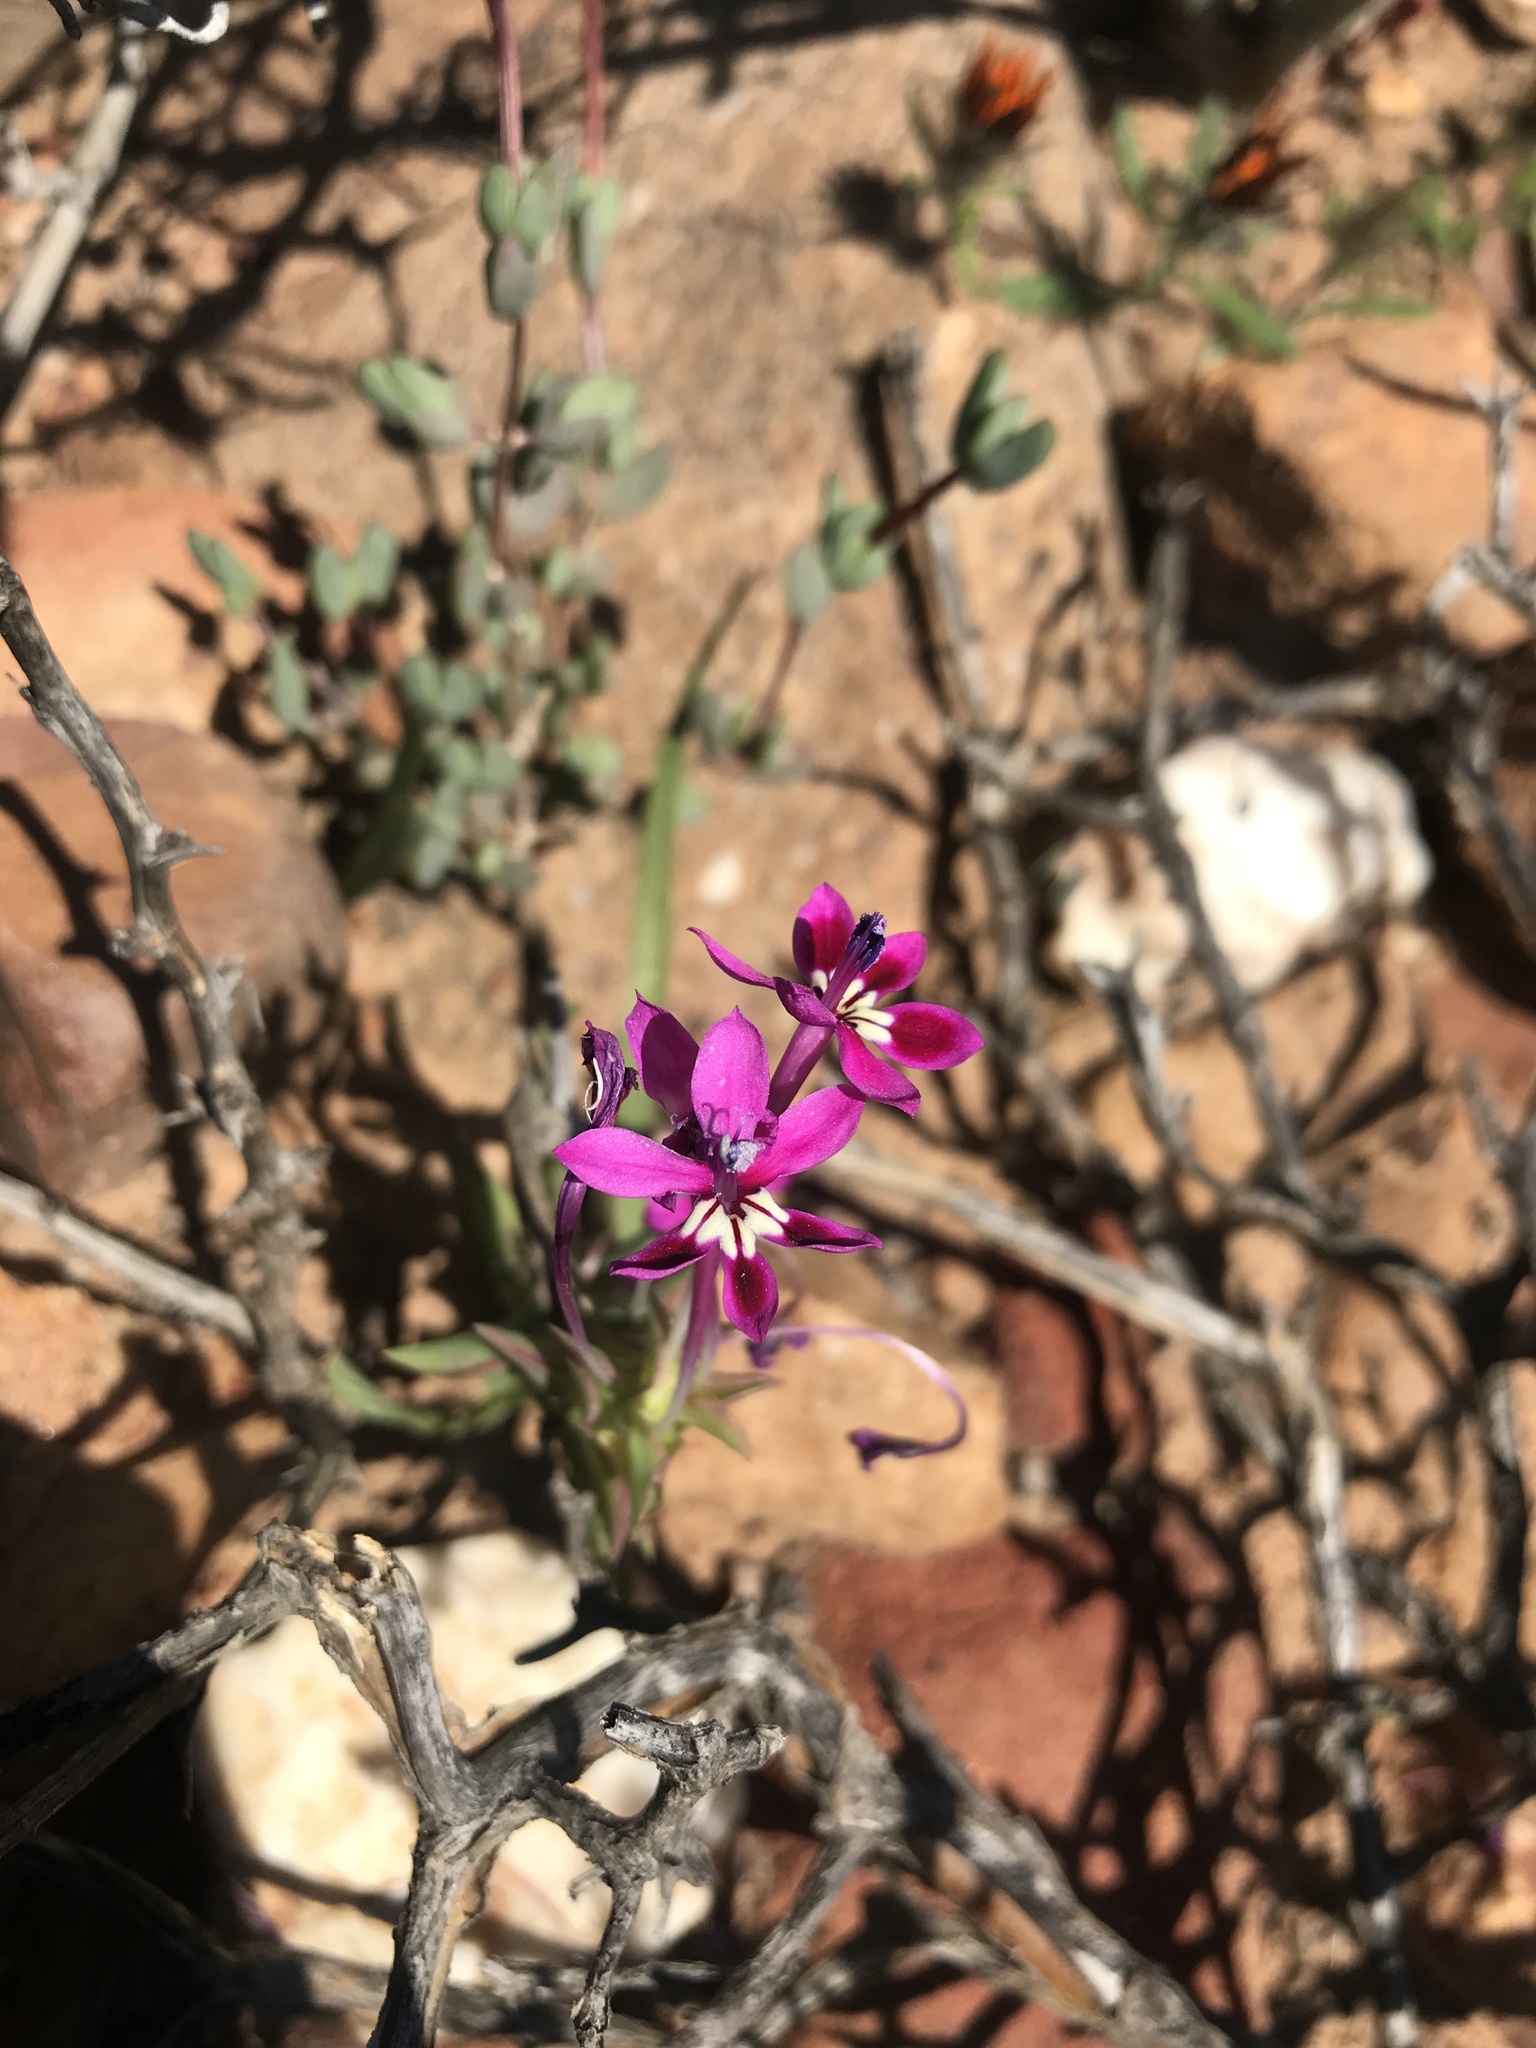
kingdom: Plantae
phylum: Tracheophyta
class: Liliopsida
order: Asparagales
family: Iridaceae
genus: Lapeirousia
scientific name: Lapeirousia silenoides
